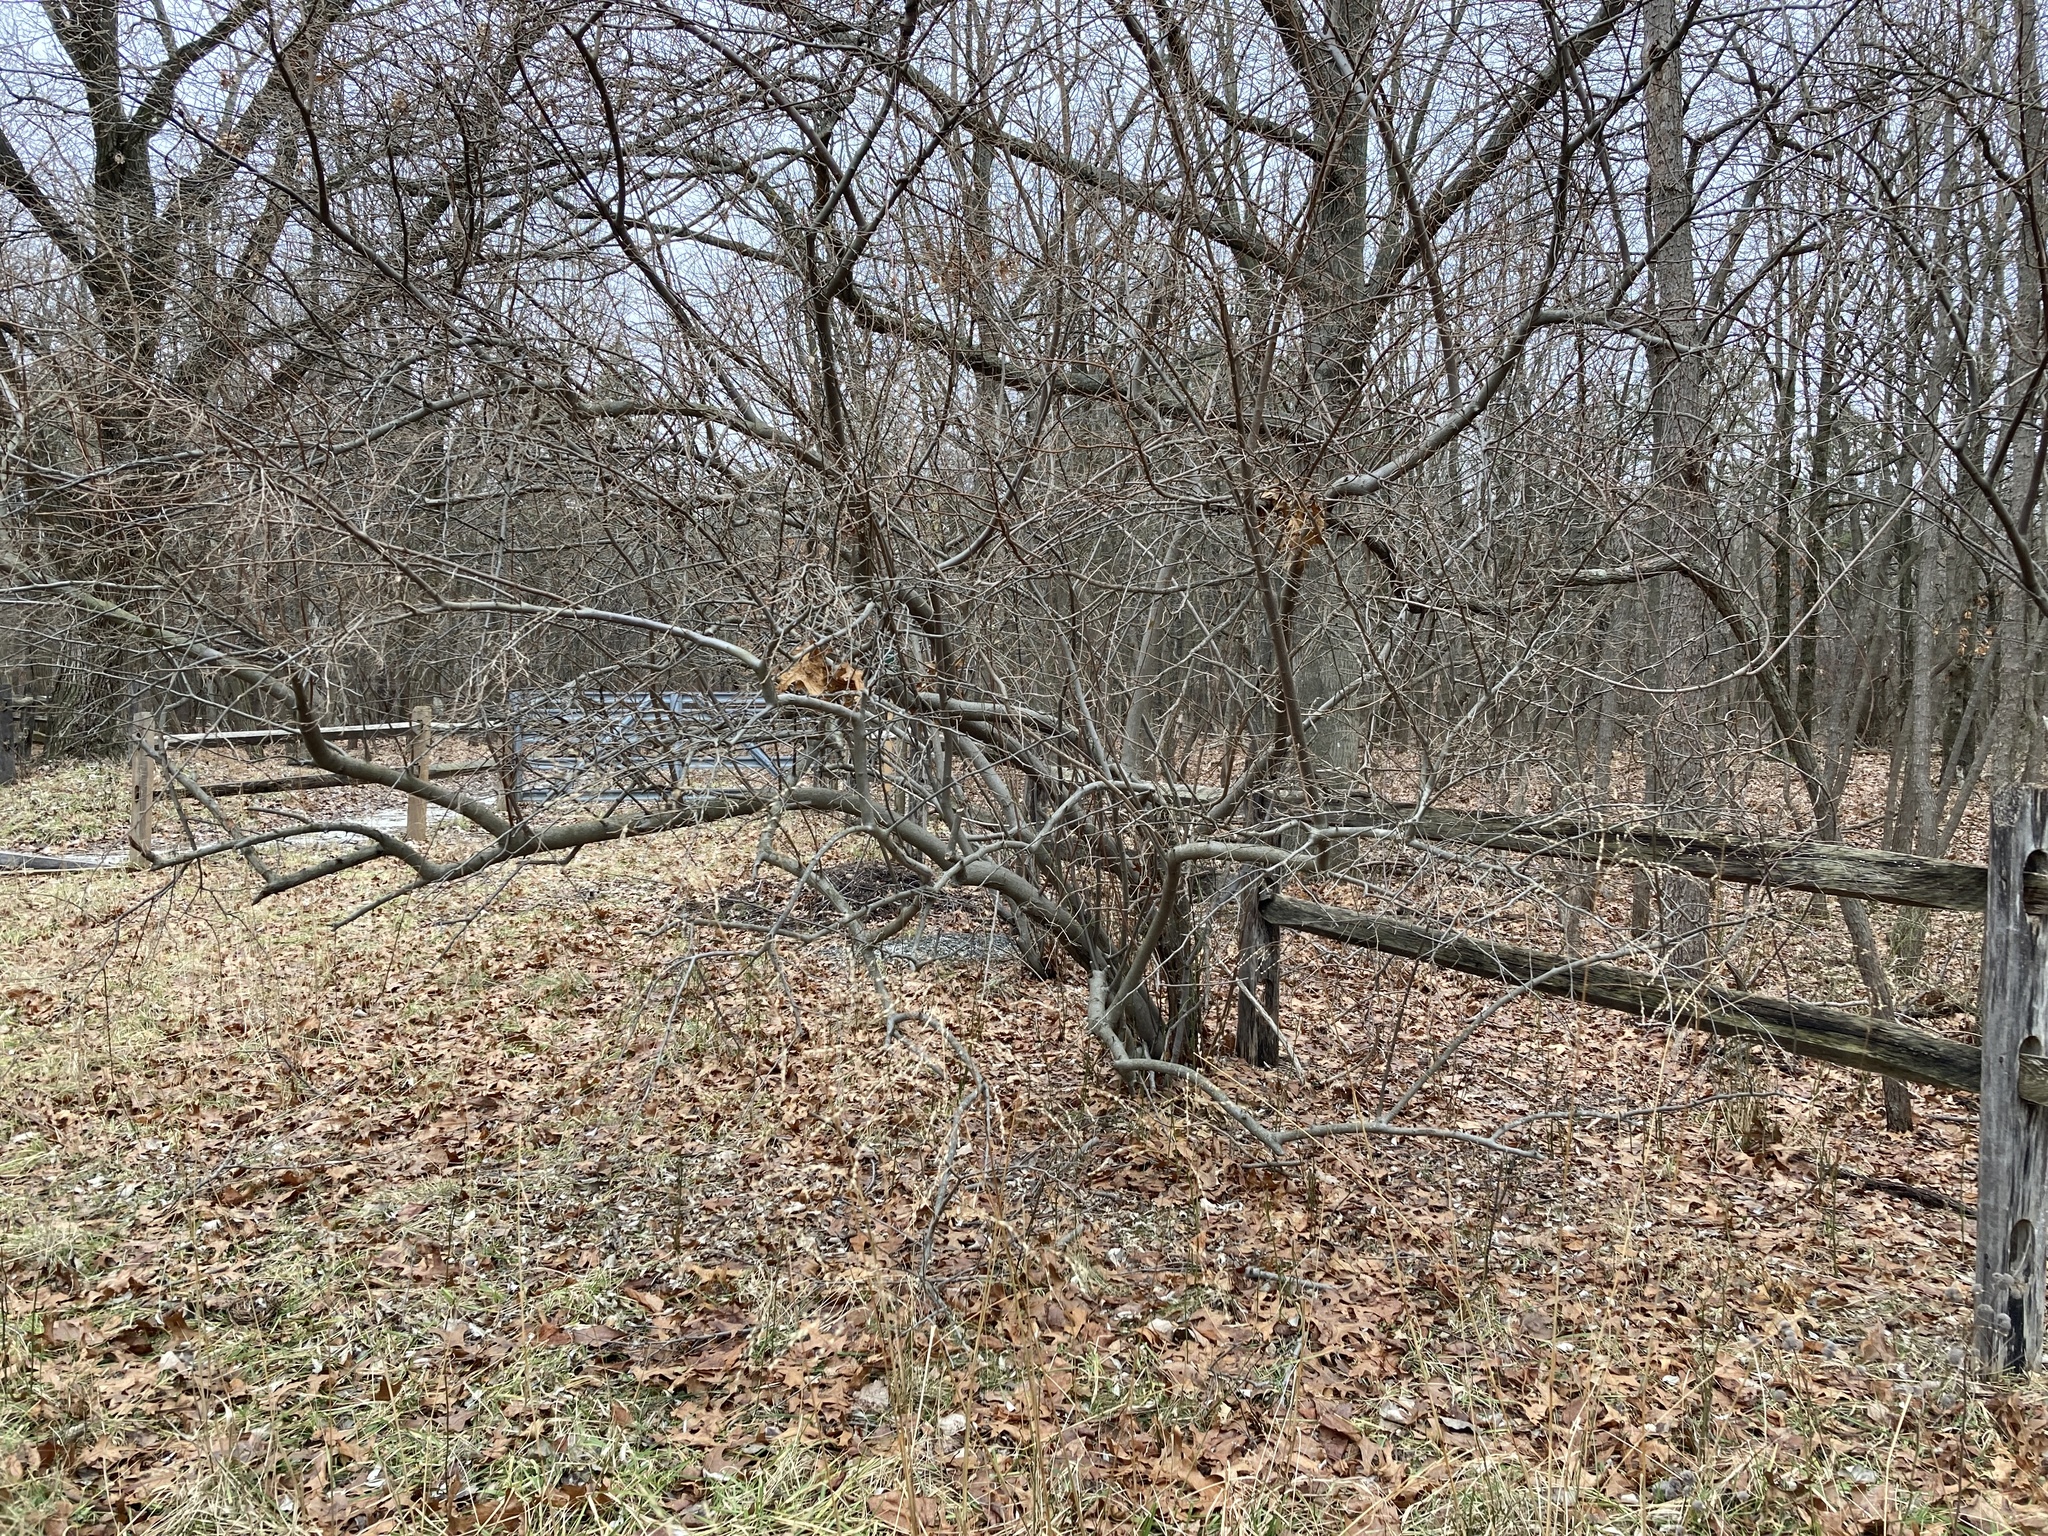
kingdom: Plantae
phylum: Tracheophyta
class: Magnoliopsida
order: Rosales
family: Elaeagnaceae
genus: Elaeagnus
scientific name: Elaeagnus umbellata
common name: Autumn olive
